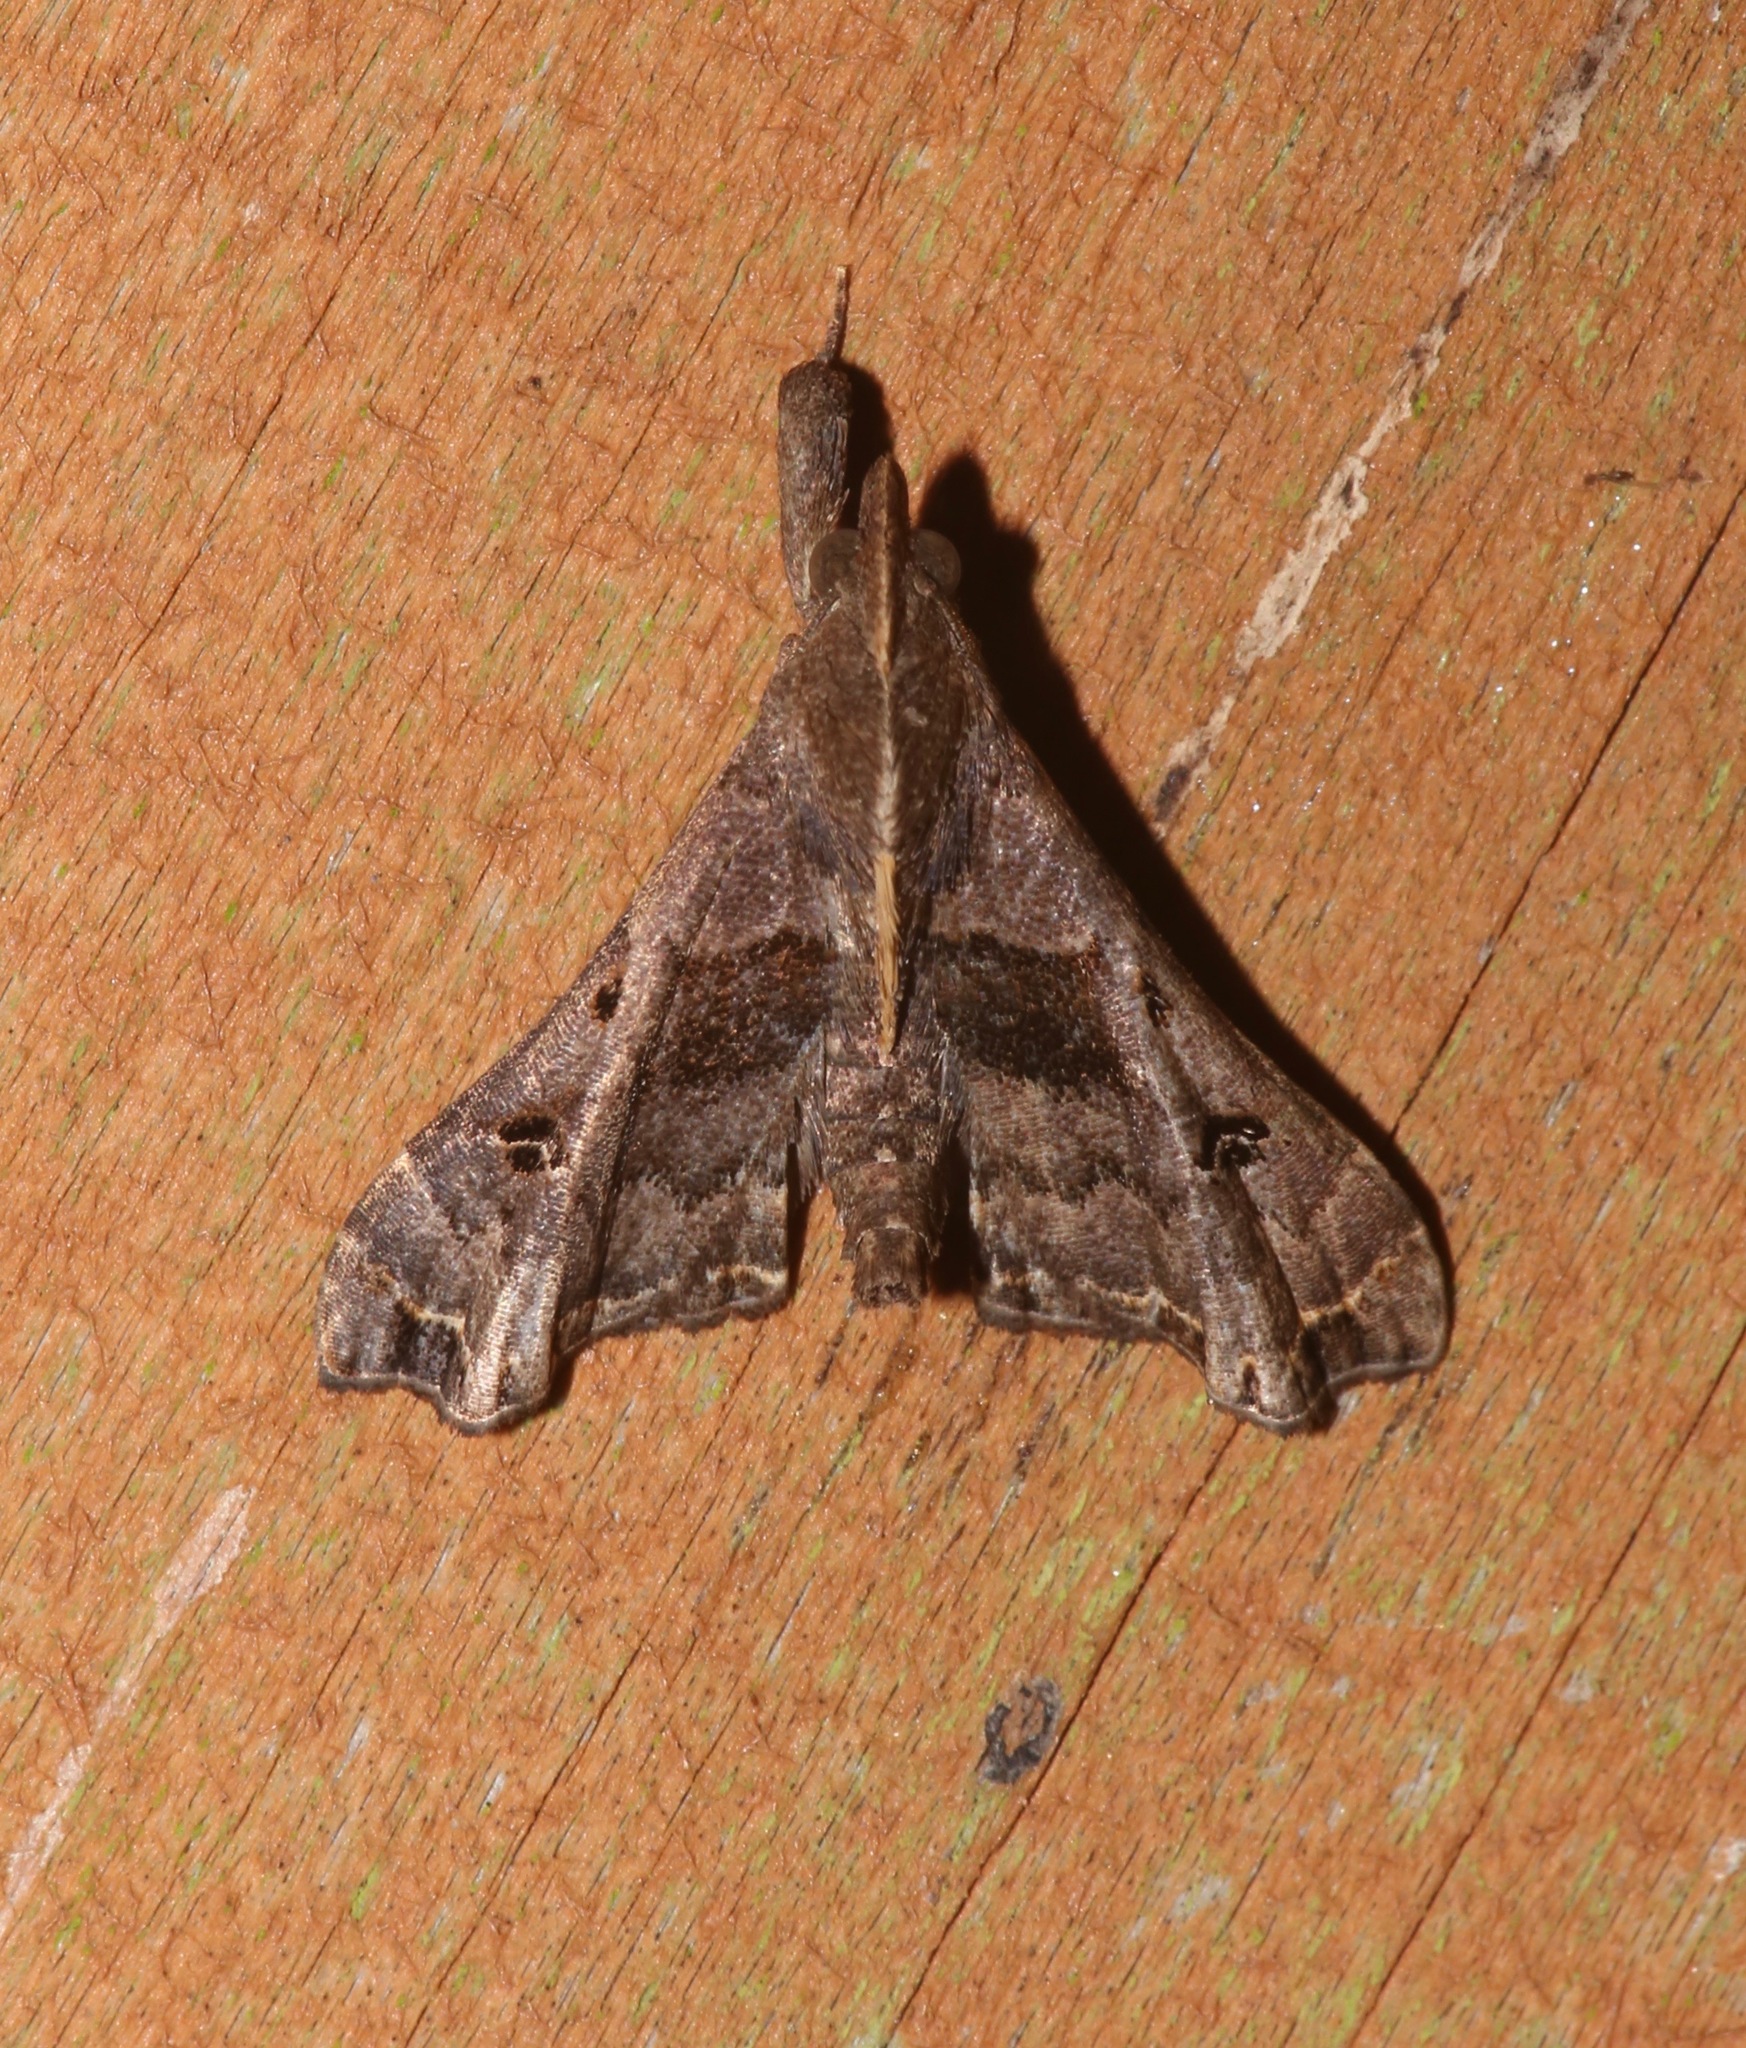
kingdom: Animalia
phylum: Arthropoda
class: Insecta
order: Lepidoptera
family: Erebidae
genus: Palthis
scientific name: Palthis asopialis
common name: Faint-spotted palthis moth
